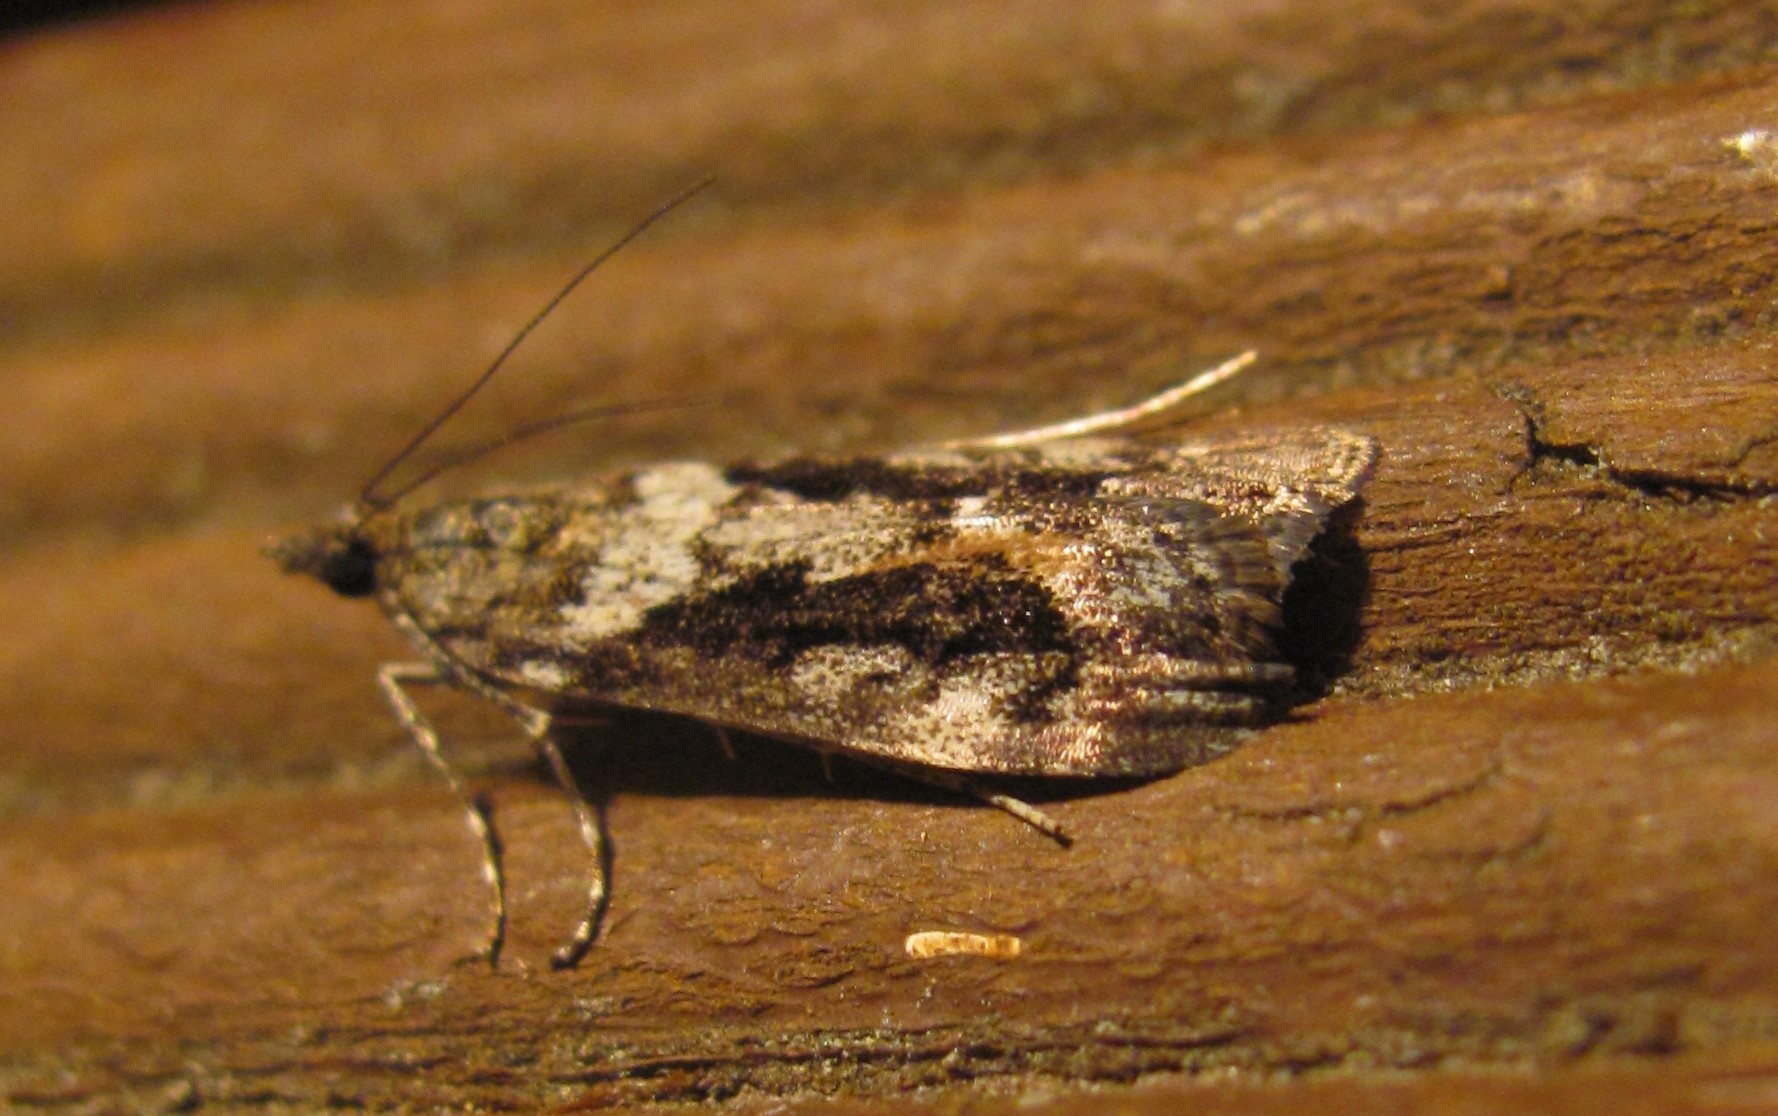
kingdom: Animalia
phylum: Arthropoda
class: Insecta
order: Lepidoptera
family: Crambidae
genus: Eudonia
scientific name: Eudonia submarginalis
